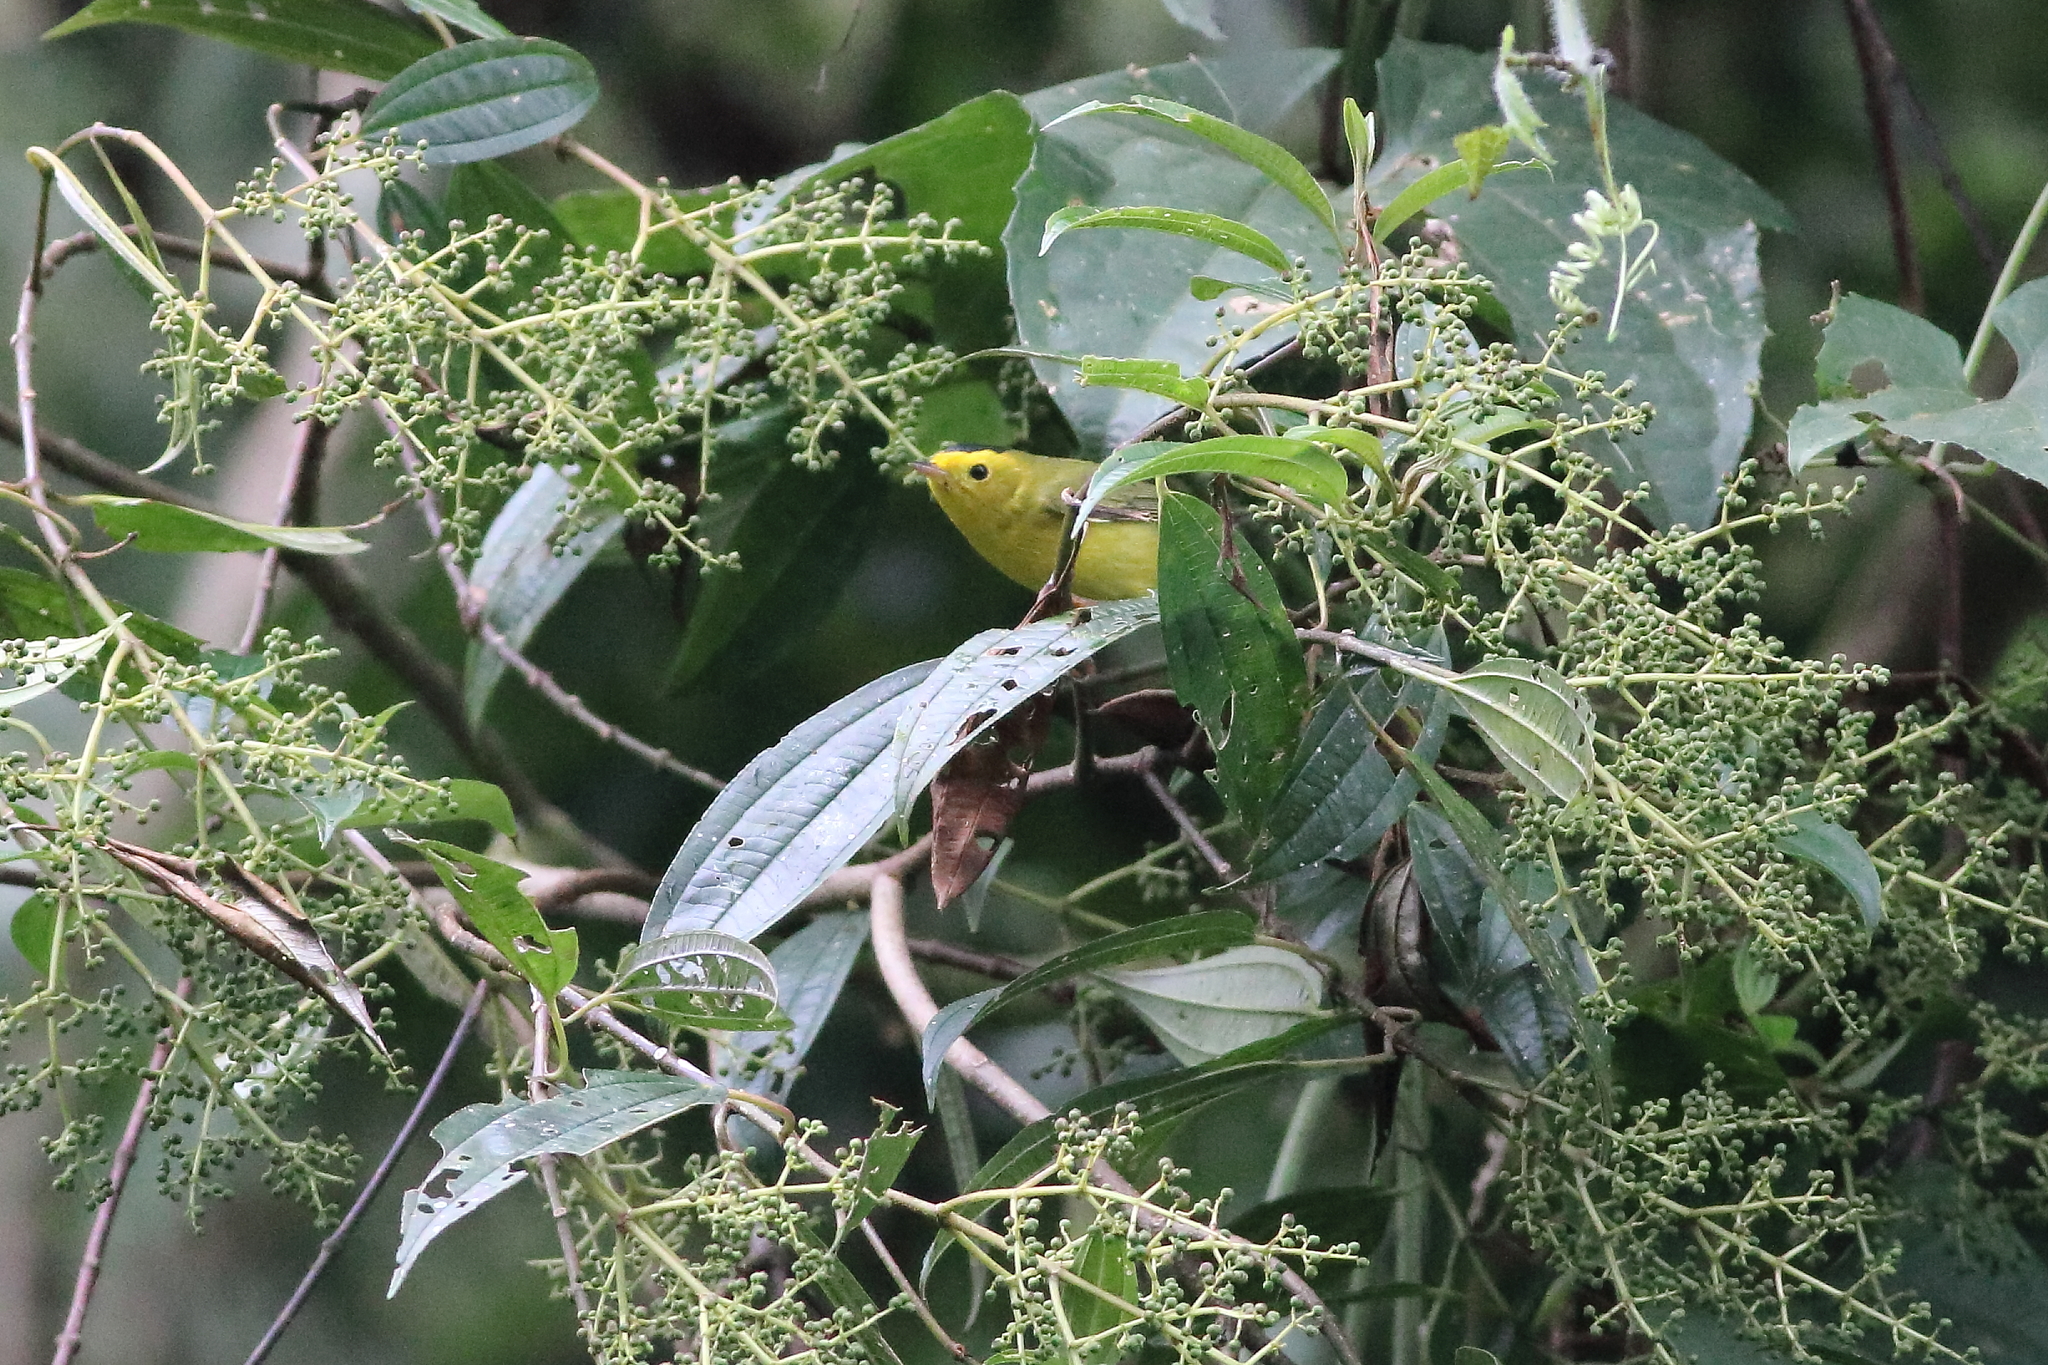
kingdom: Animalia
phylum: Chordata
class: Aves
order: Passeriformes
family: Parulidae
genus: Cardellina
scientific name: Cardellina pusilla
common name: Wilson's warbler
